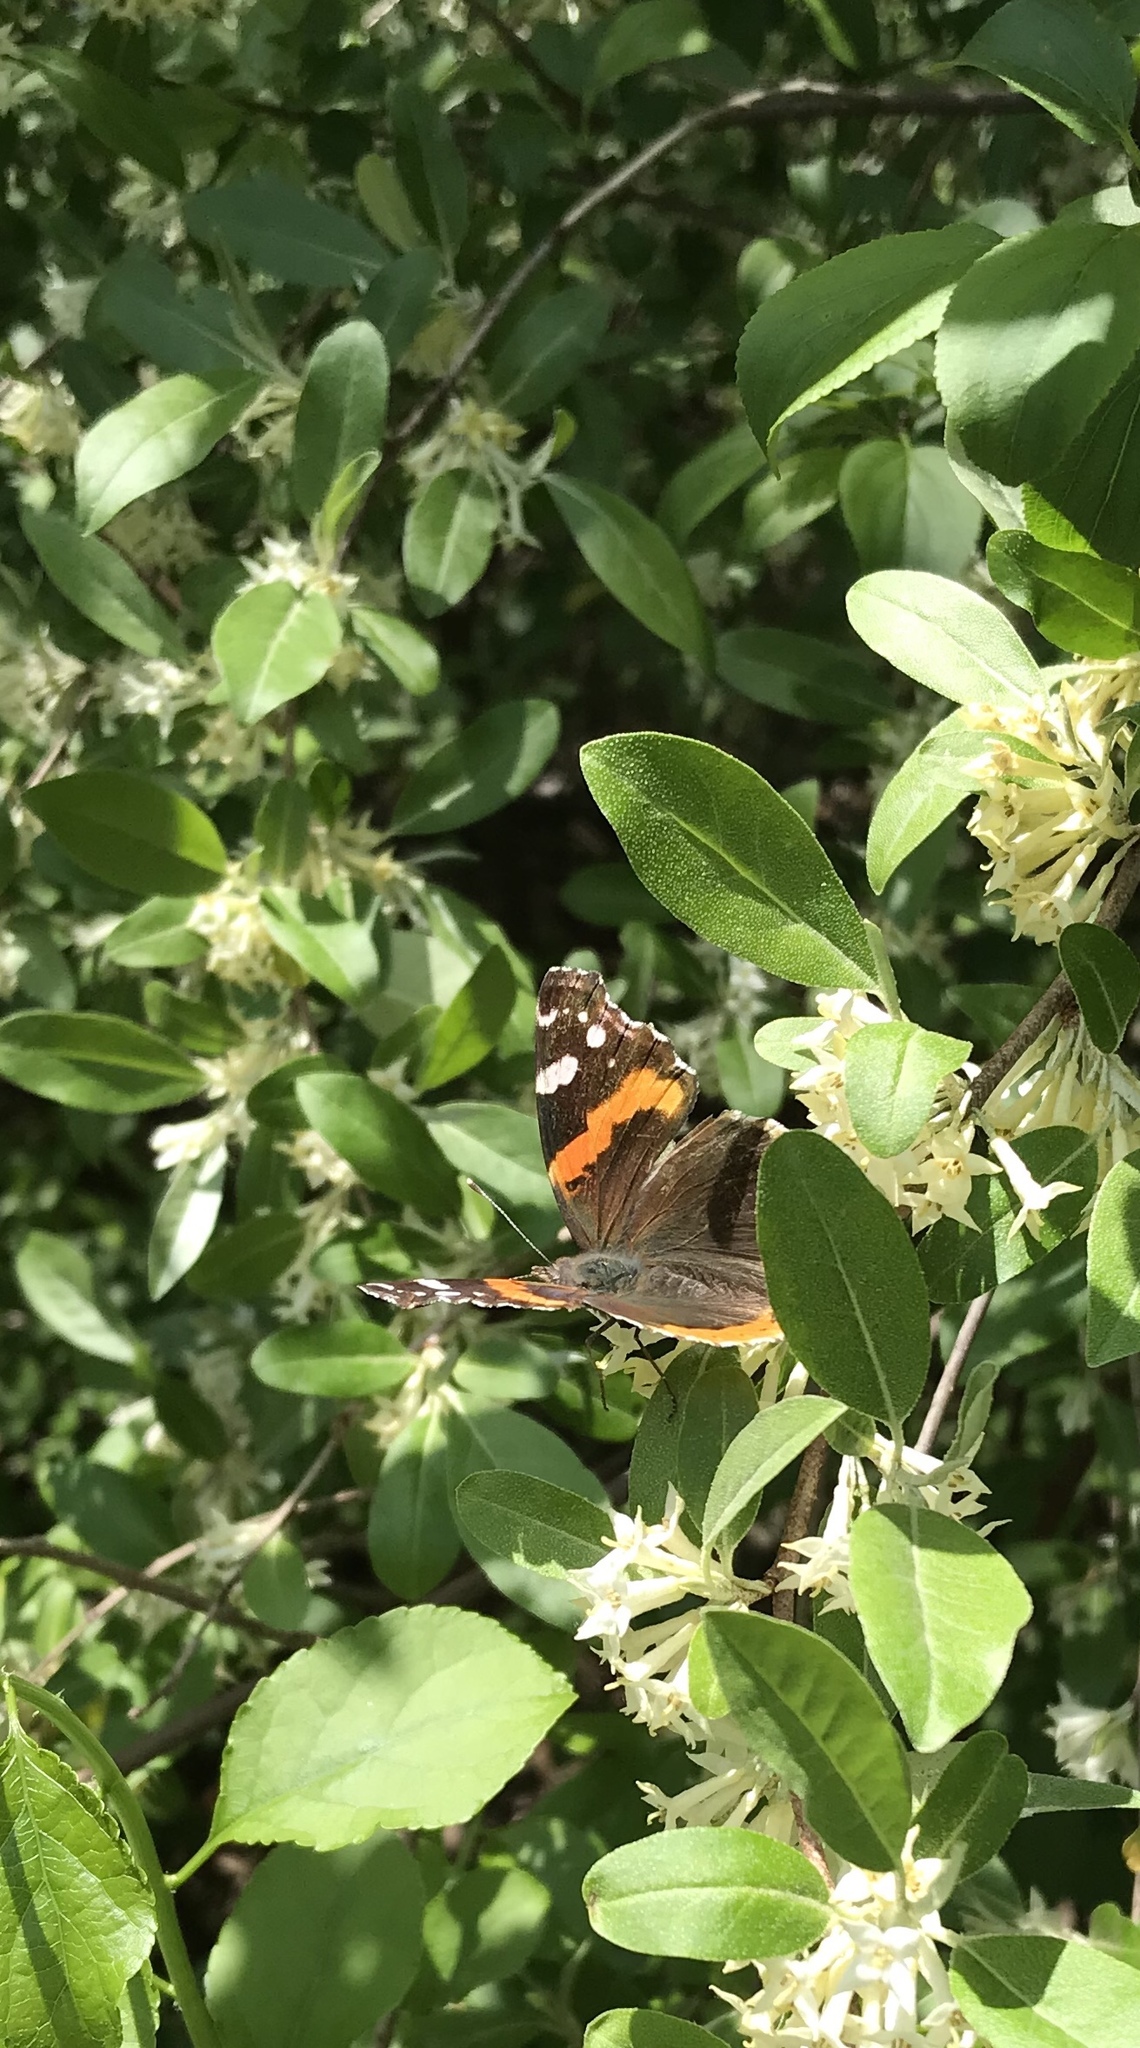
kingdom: Animalia
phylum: Arthropoda
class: Insecta
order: Lepidoptera
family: Nymphalidae
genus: Vanessa
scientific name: Vanessa atalanta
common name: Red admiral
